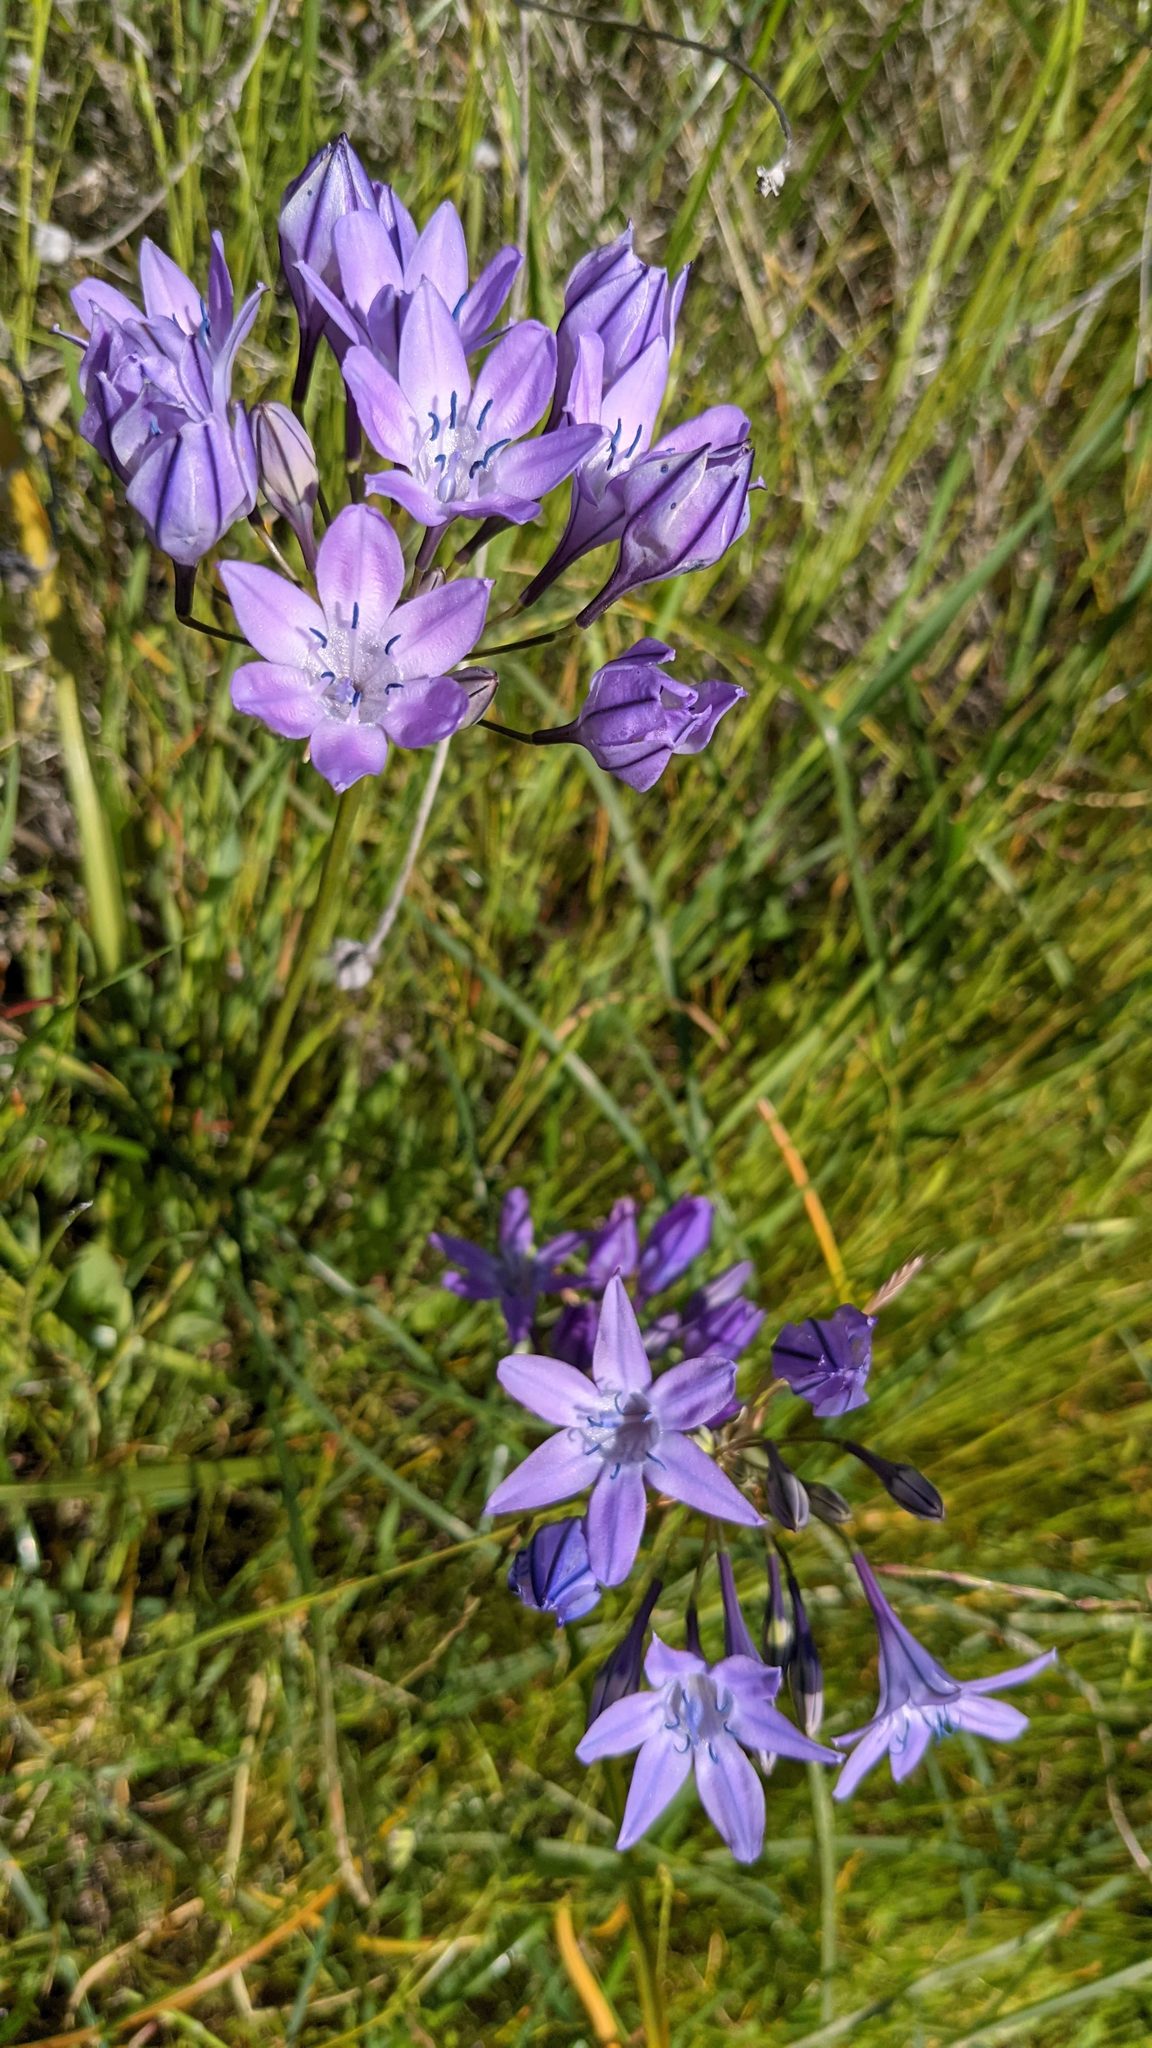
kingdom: Plantae
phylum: Tracheophyta
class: Liliopsida
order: Asparagales
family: Asparagaceae
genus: Triteleia
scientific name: Triteleia bridgesii
